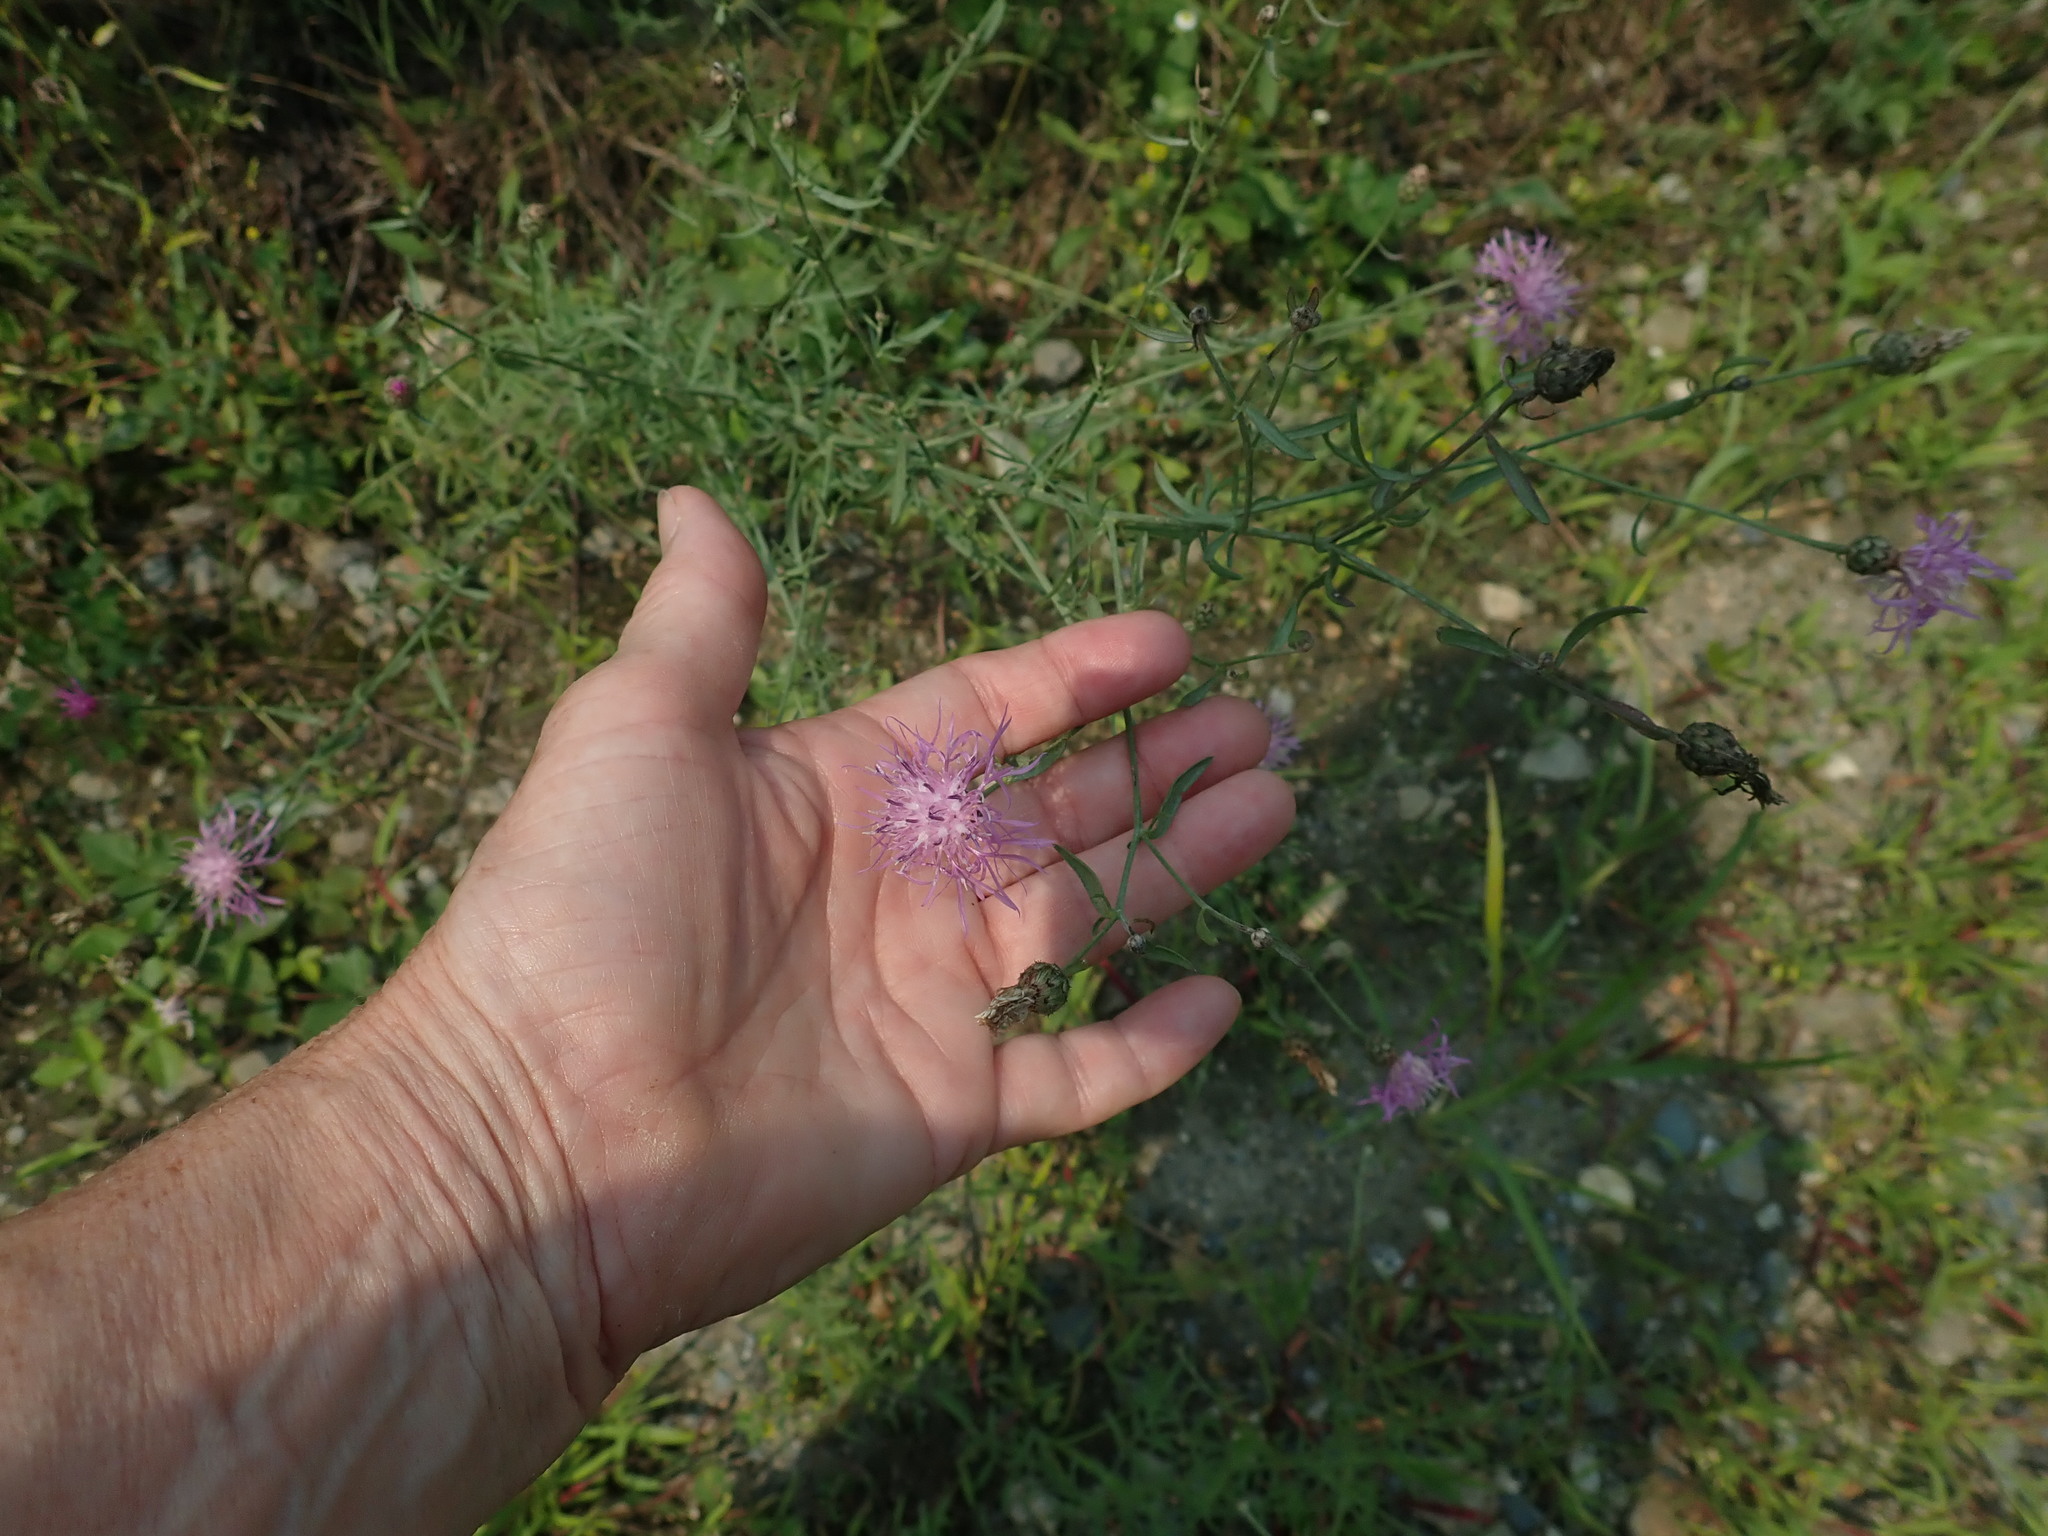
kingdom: Plantae
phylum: Tracheophyta
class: Magnoliopsida
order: Asterales
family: Asteraceae
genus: Centaurea
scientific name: Centaurea stoebe
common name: Spotted knapweed
